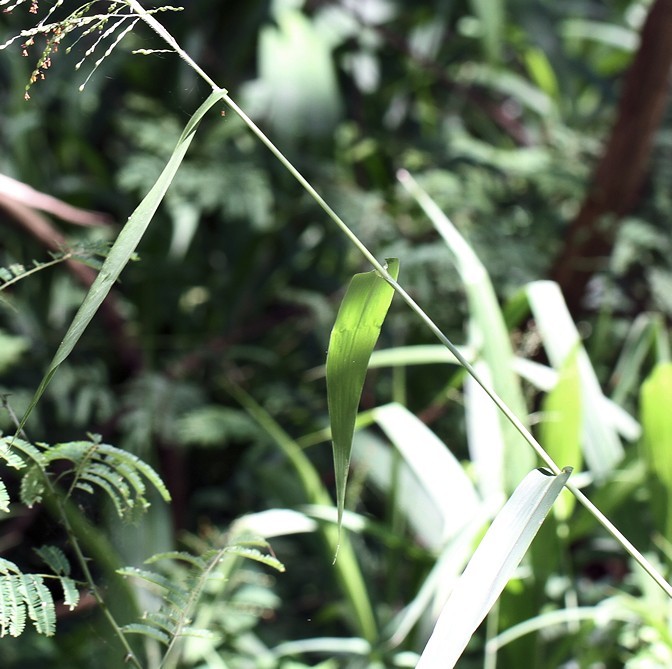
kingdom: Plantae
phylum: Tracheophyta
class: Liliopsida
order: Poales
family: Poaceae
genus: Panicum
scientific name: Panicum deustum
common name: Reed panicum
